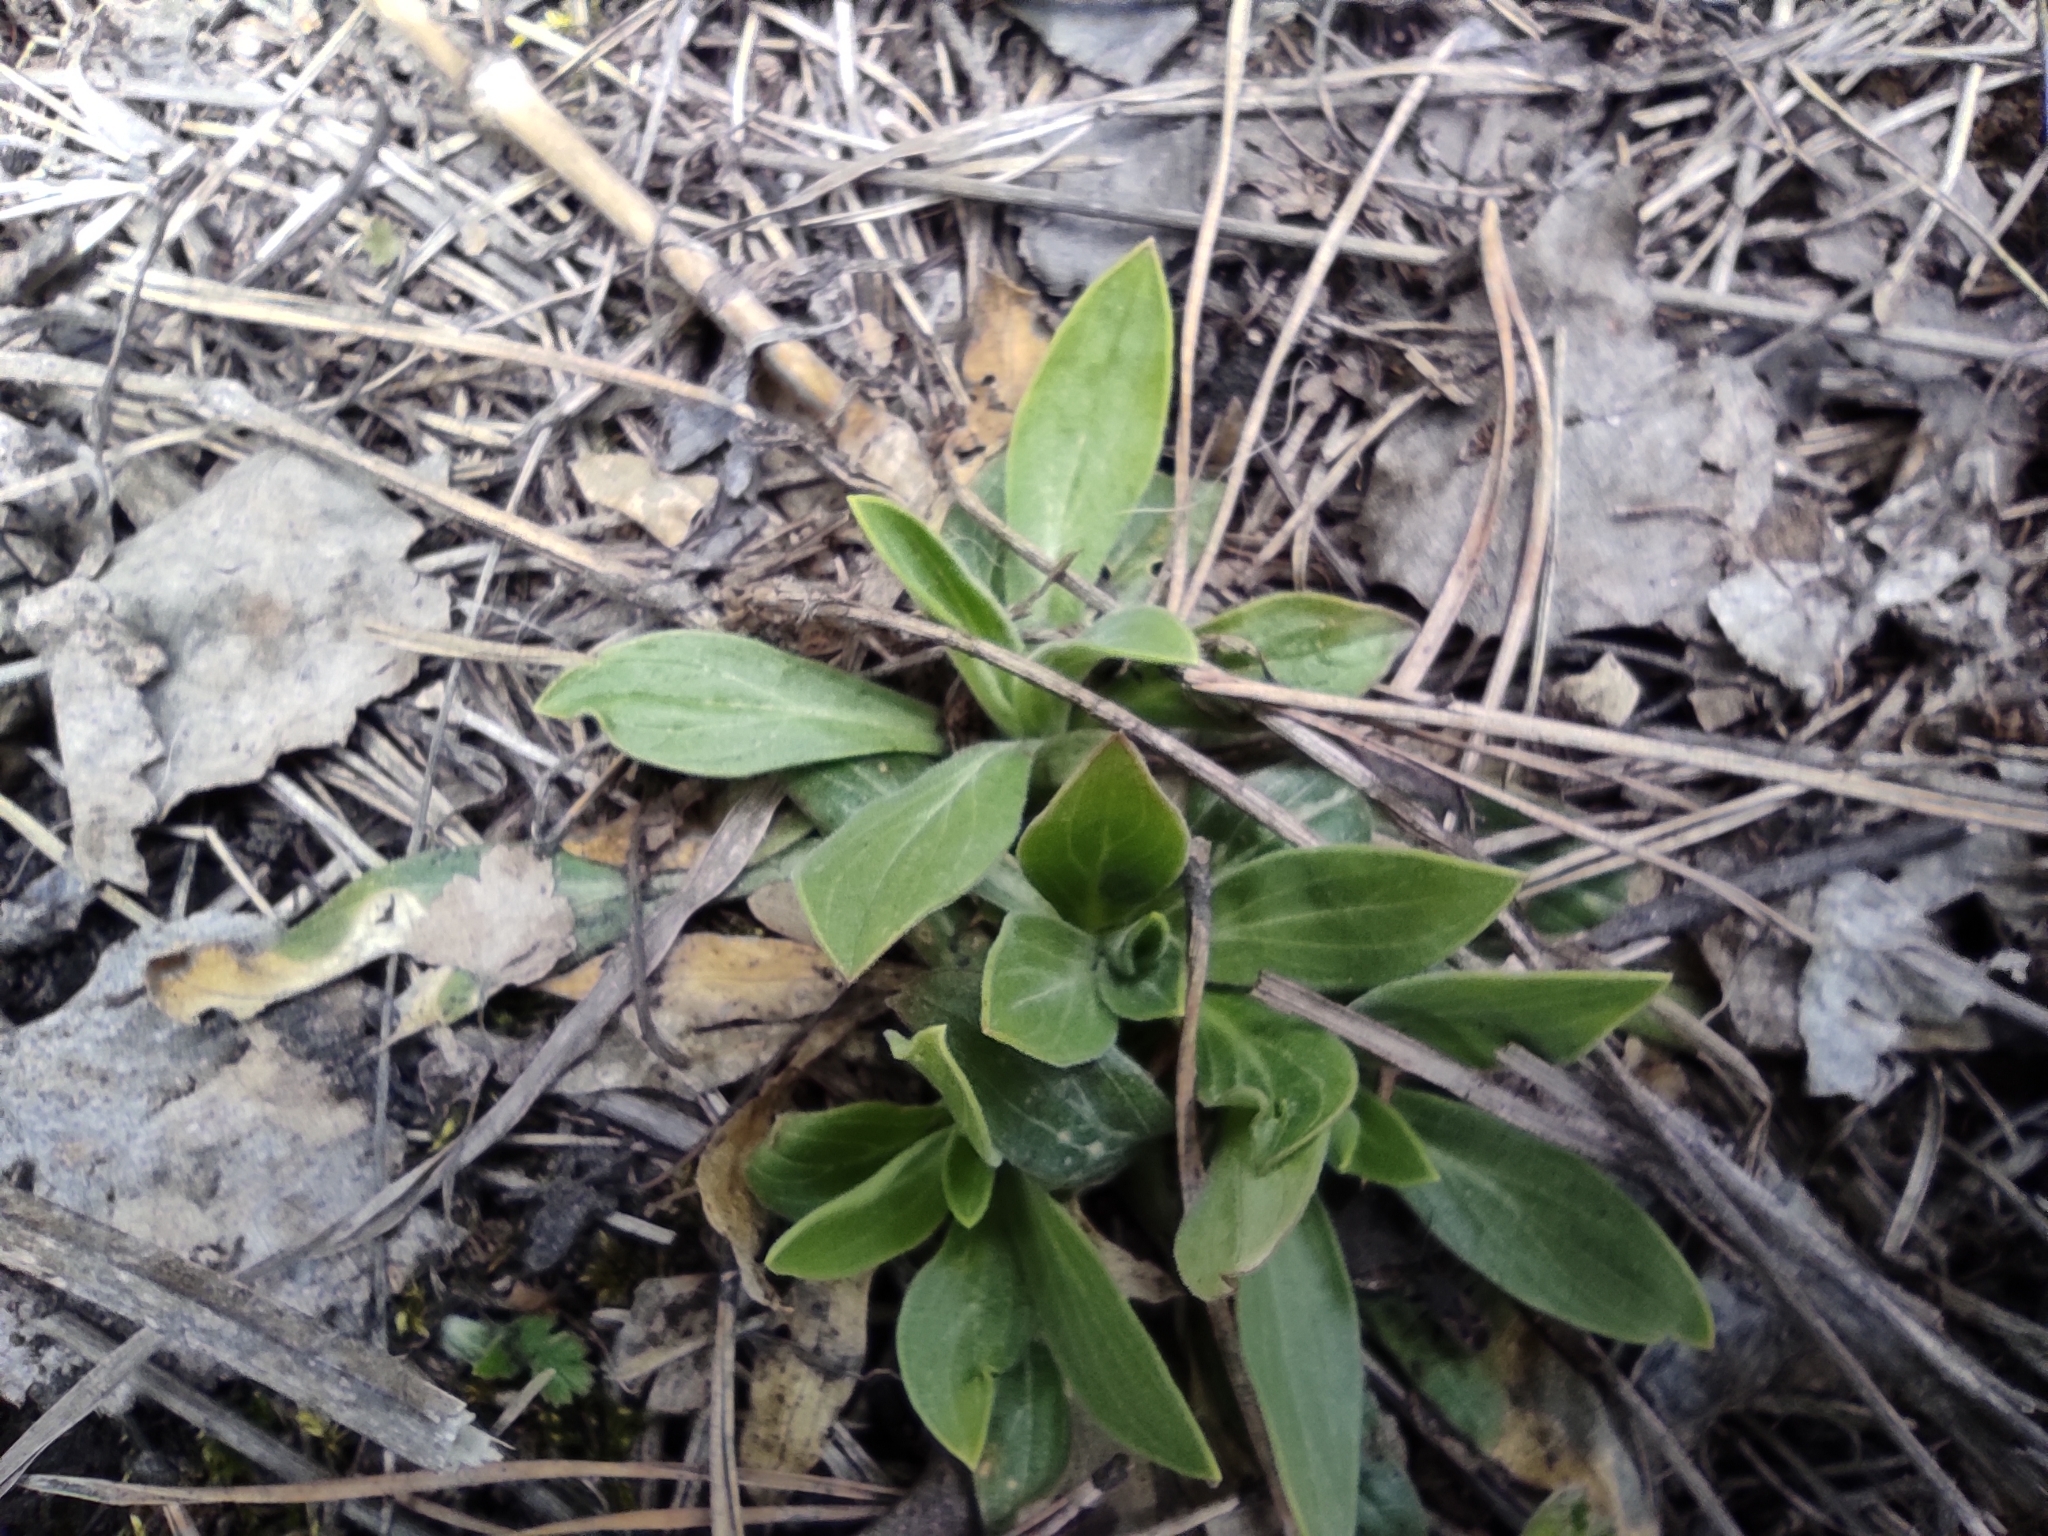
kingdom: Plantae
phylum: Tracheophyta
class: Magnoliopsida
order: Caryophyllales
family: Caryophyllaceae
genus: Silene
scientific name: Silene latifolia
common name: White campion
